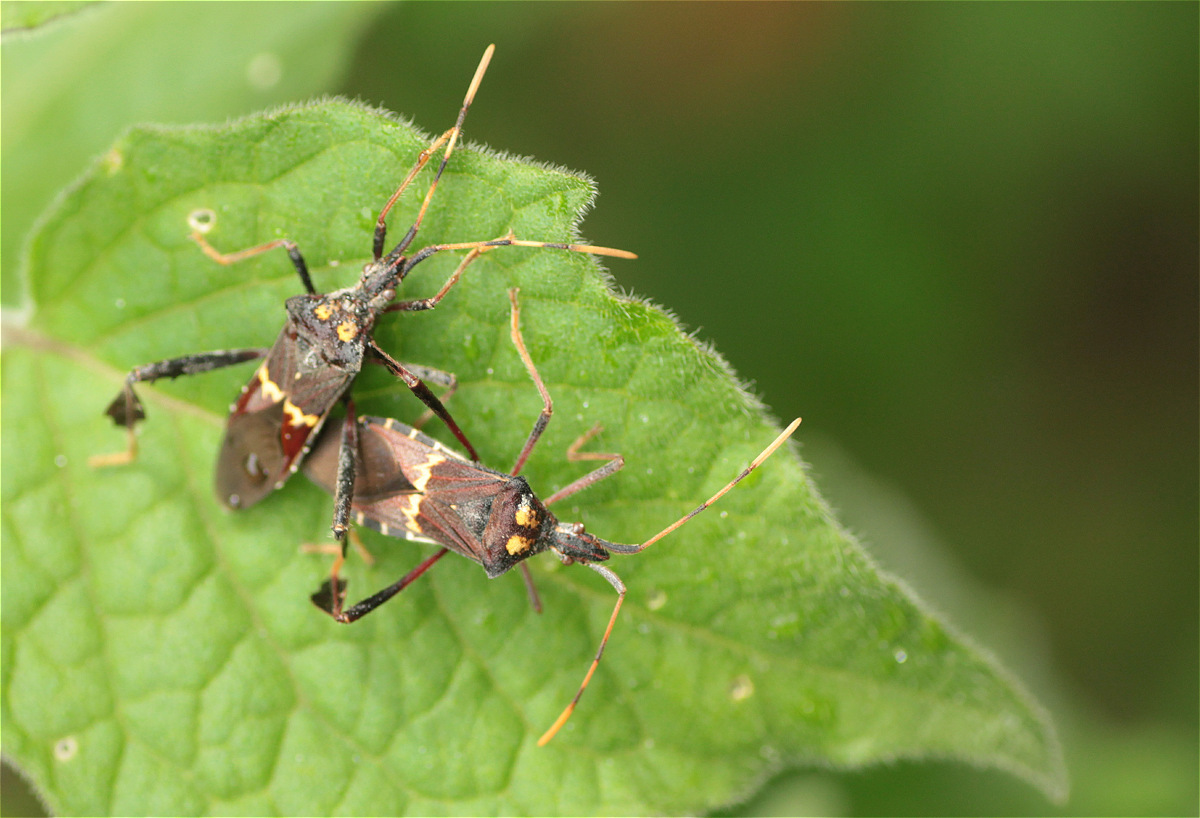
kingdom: Animalia
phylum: Arthropoda
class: Insecta
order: Hemiptera
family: Coreidae
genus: Leptoglossus
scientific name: Leptoglossus zonatus
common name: Large-legged bug
